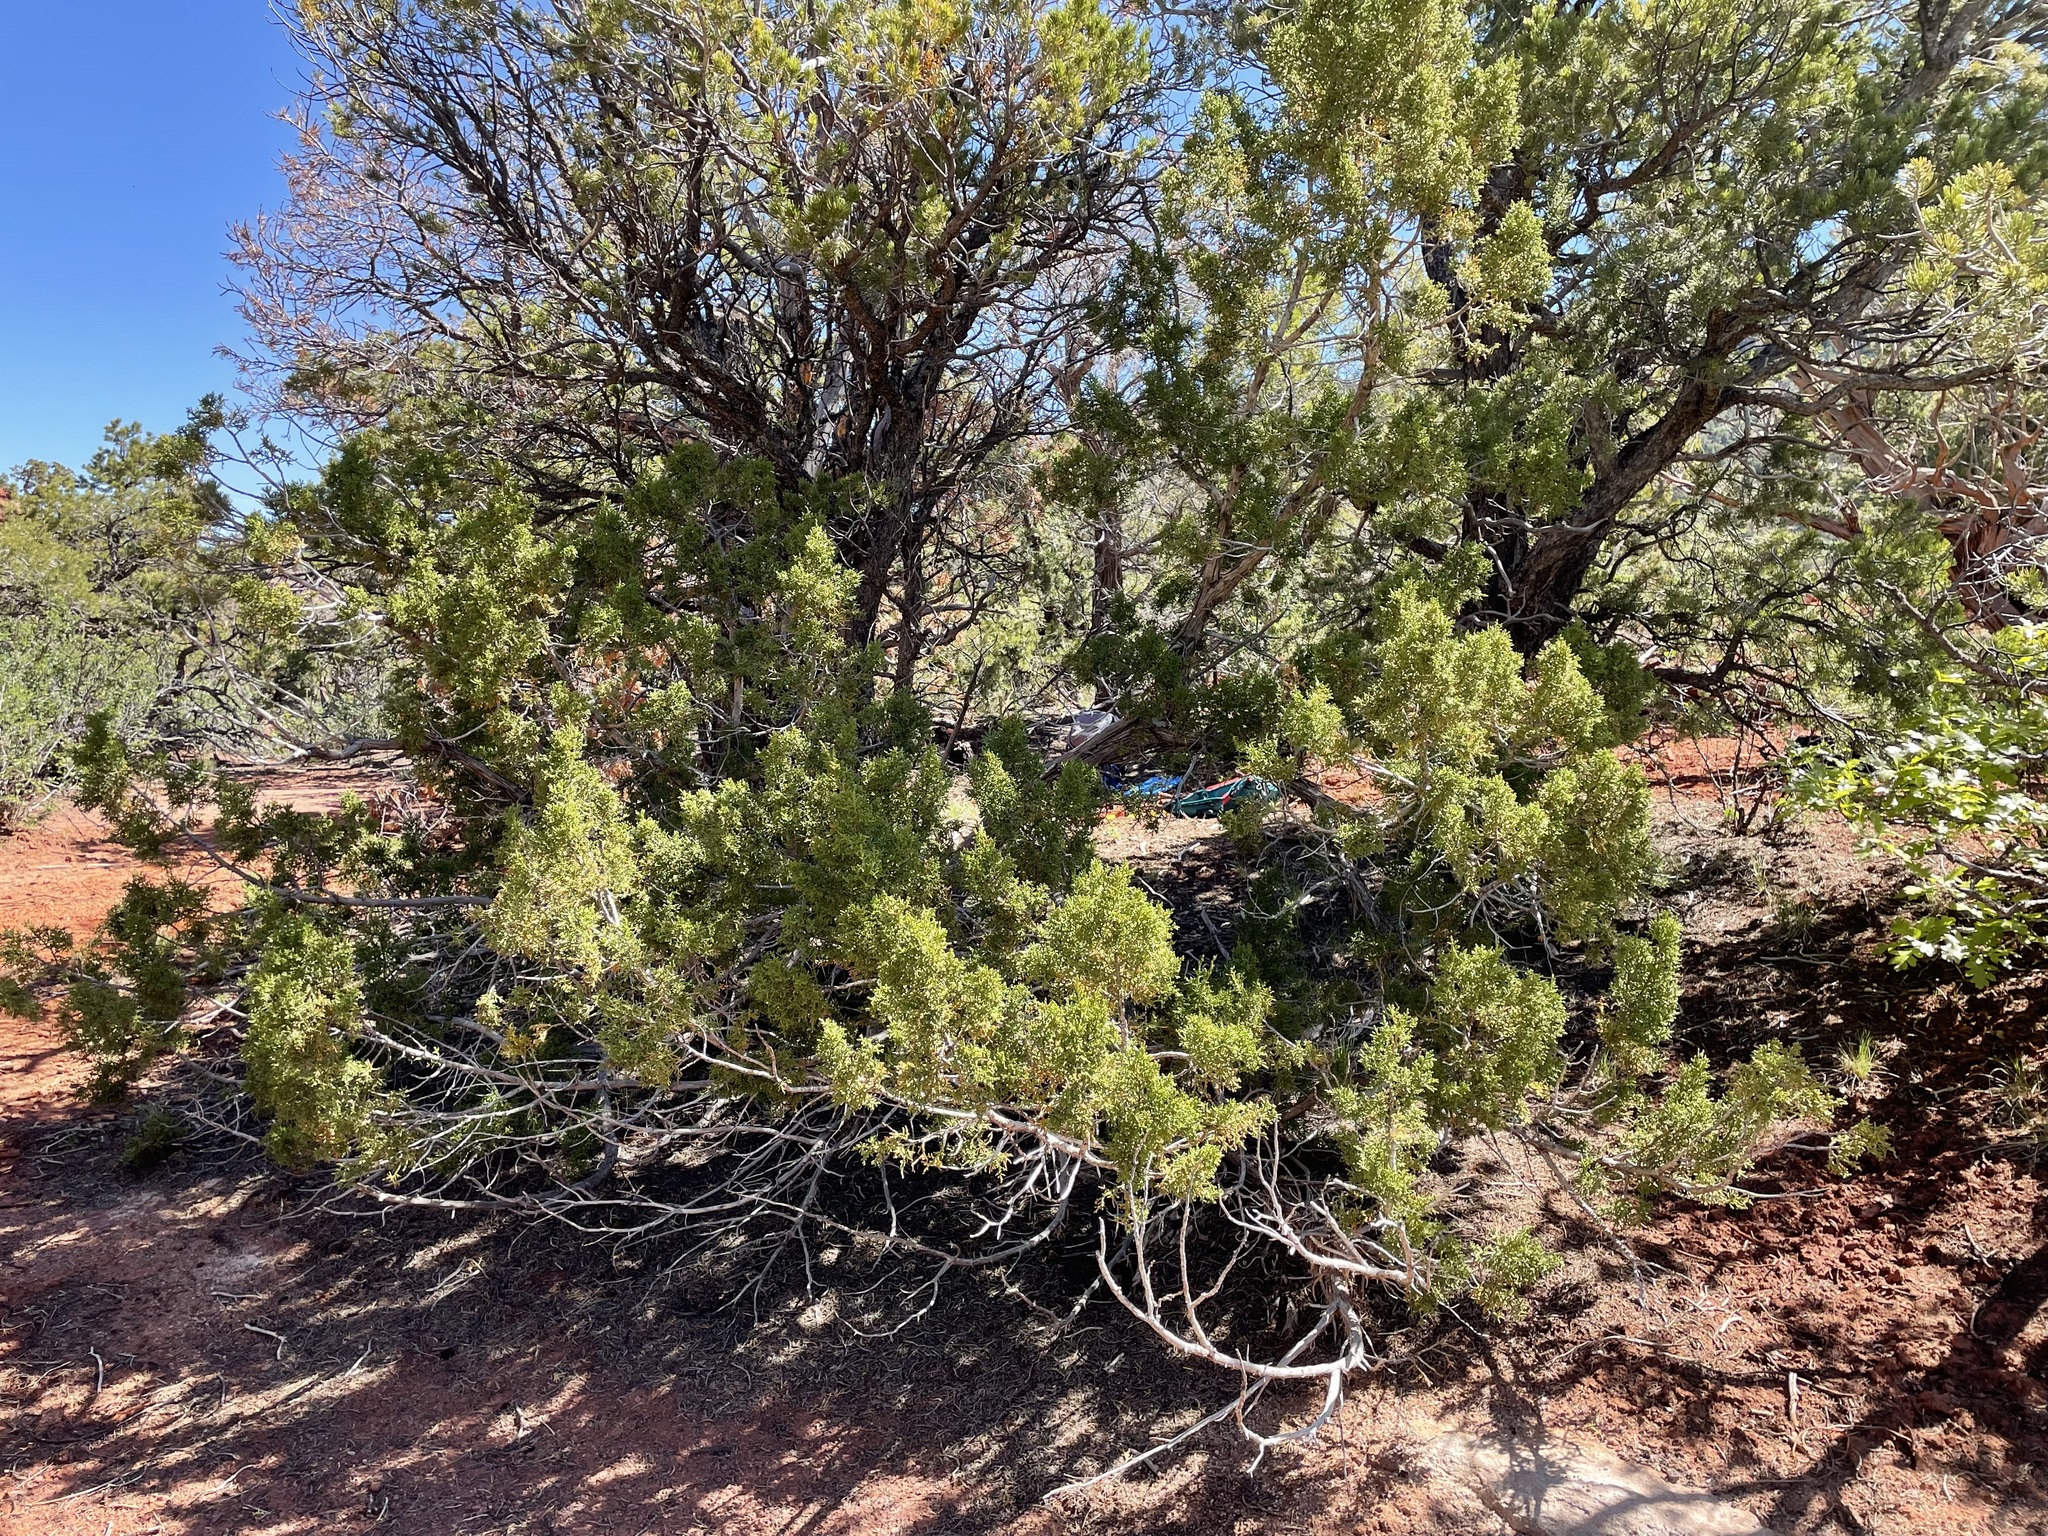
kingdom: Plantae
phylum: Tracheophyta
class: Pinopsida
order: Pinales
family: Cupressaceae
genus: Juniperus
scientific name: Juniperus monosperma
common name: One-seed juniper
